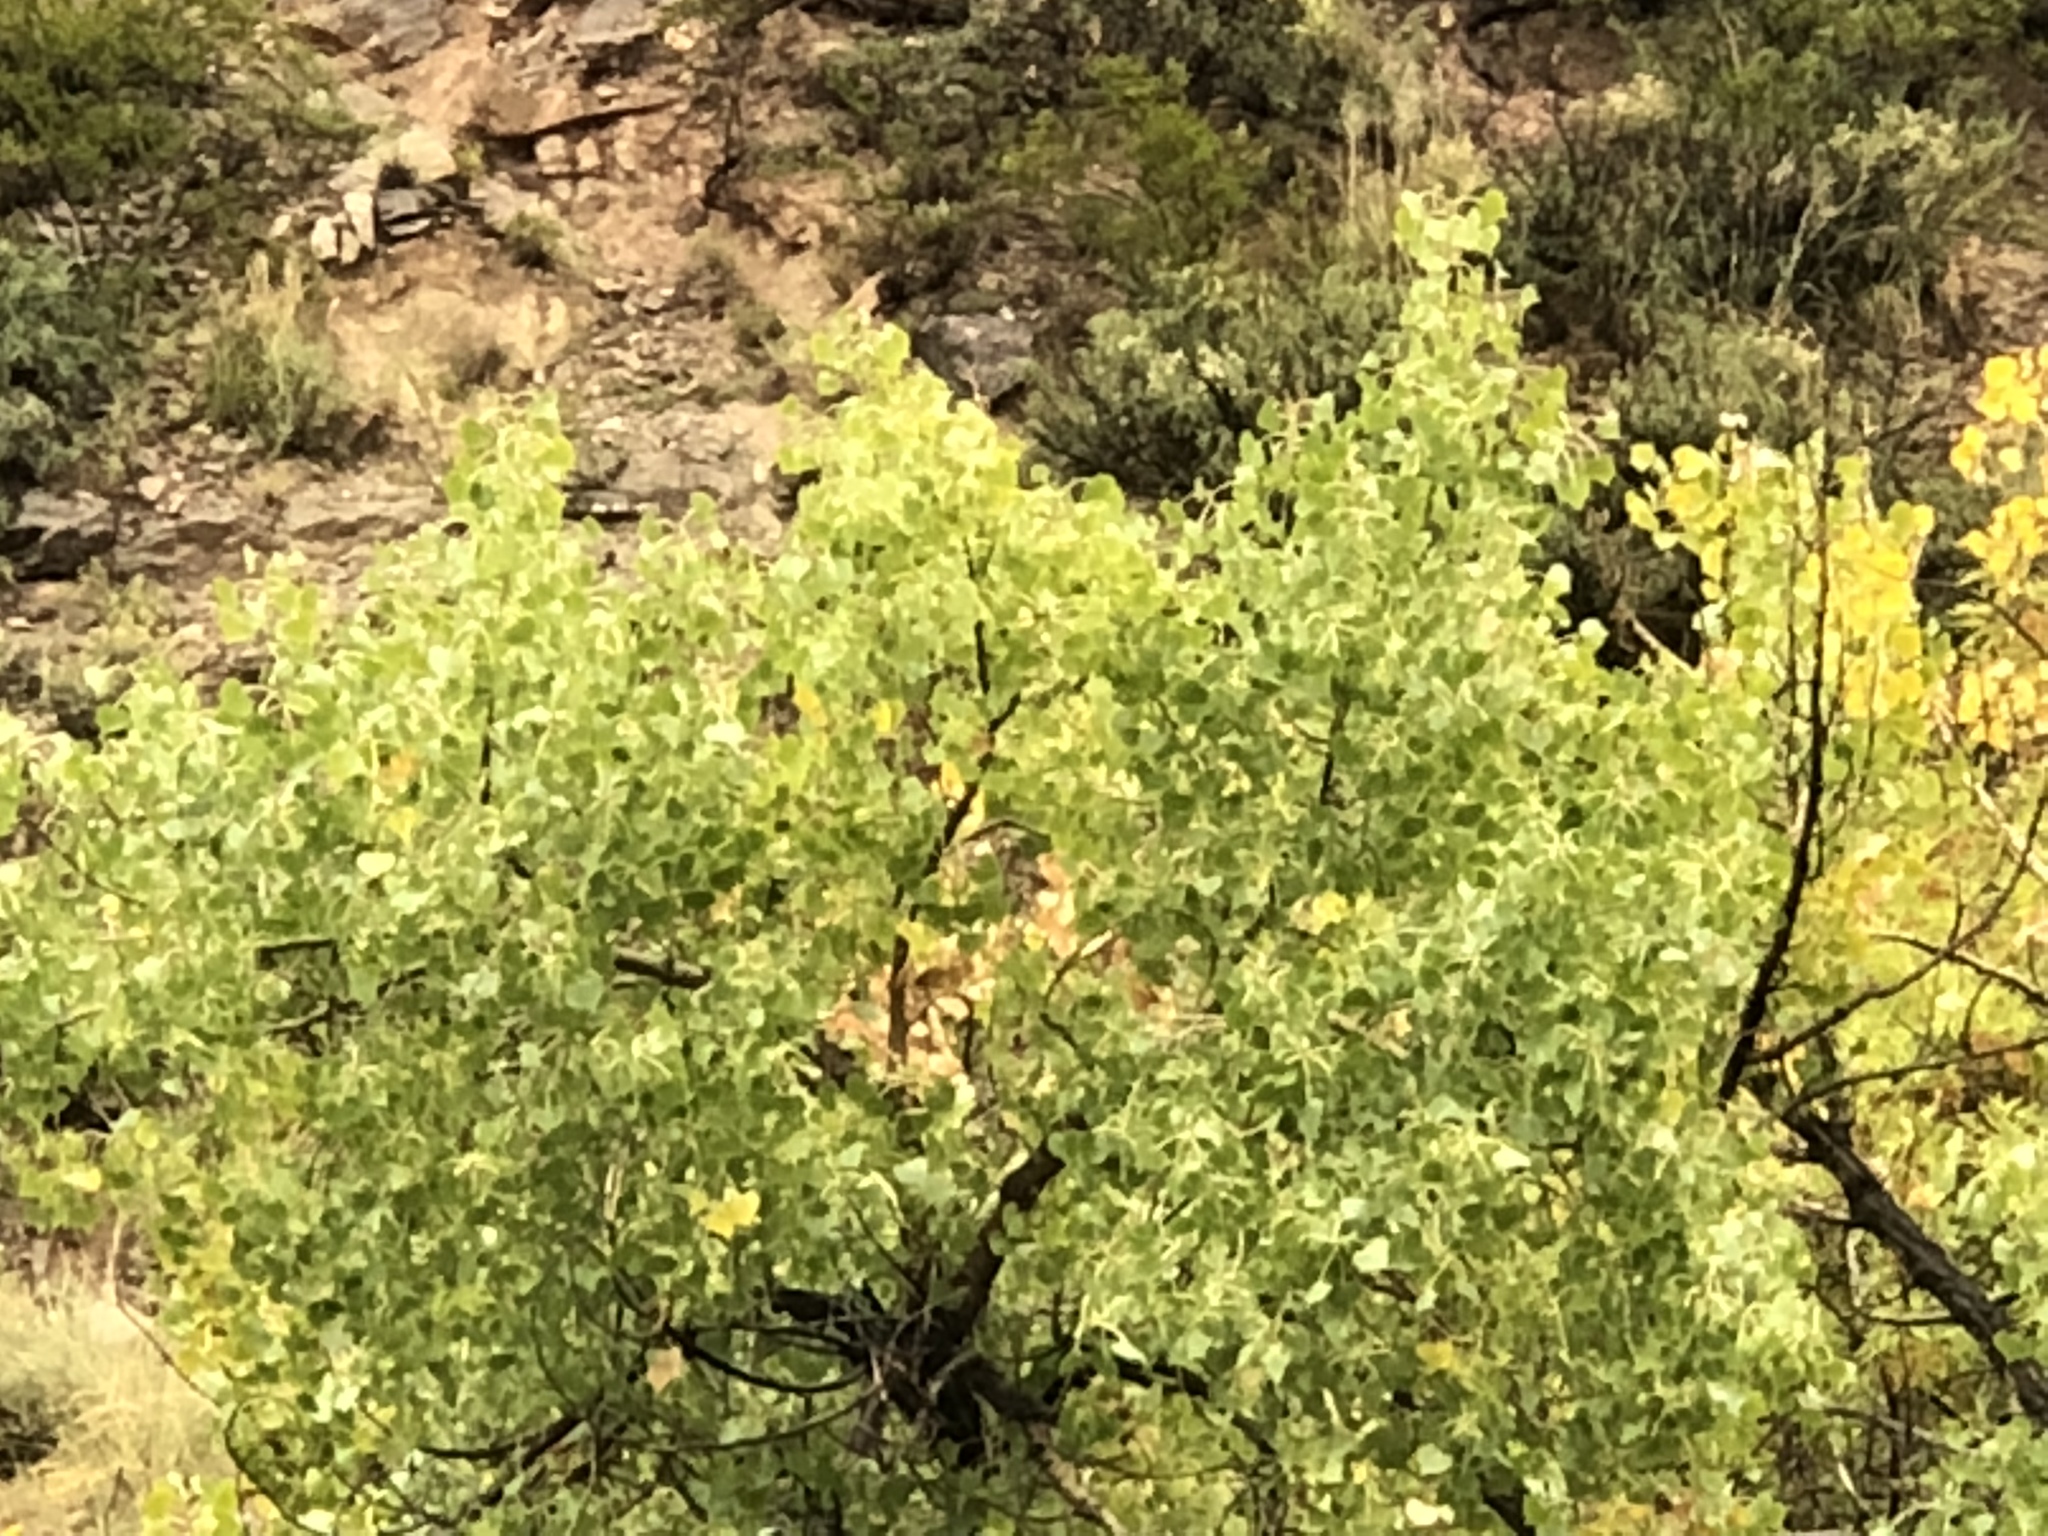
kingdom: Plantae
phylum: Tracheophyta
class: Magnoliopsida
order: Malpighiales
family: Salicaceae
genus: Populus
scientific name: Populus fremontii
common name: Fremont's cottonwood
